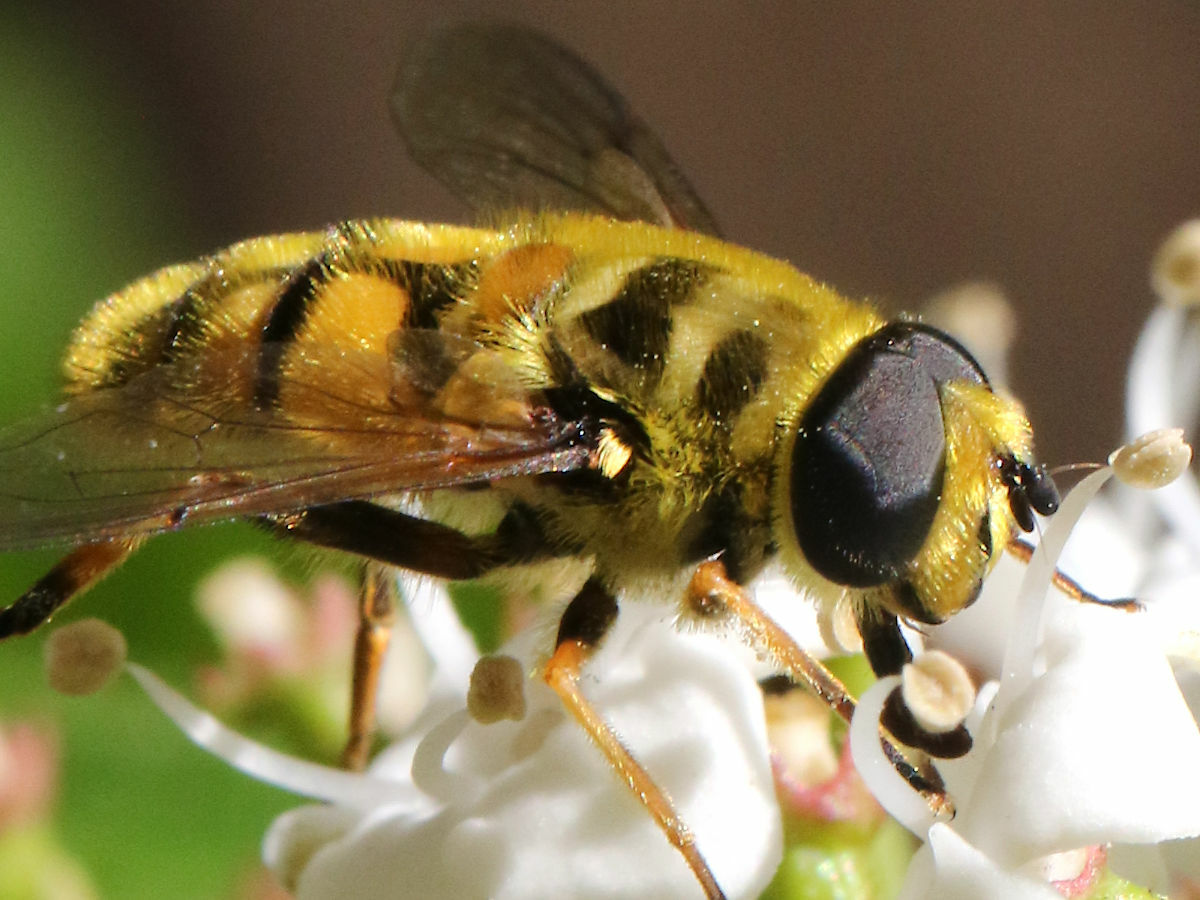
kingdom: Animalia
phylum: Arthropoda
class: Insecta
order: Diptera
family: Syrphidae
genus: Myathropa
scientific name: Myathropa florea
